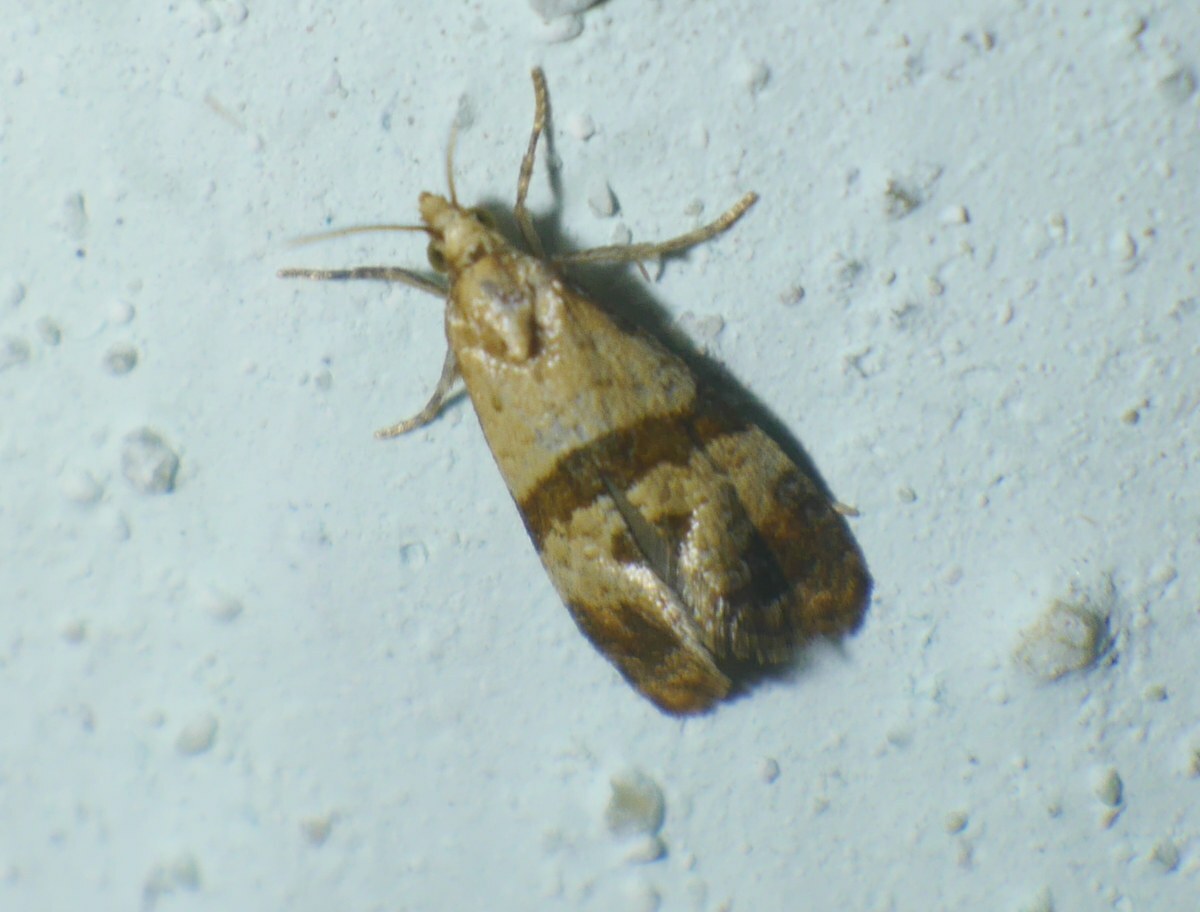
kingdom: Animalia
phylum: Arthropoda
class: Insecta
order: Lepidoptera
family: Tortricidae
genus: Phalonidia
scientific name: Phalonidia contractana
